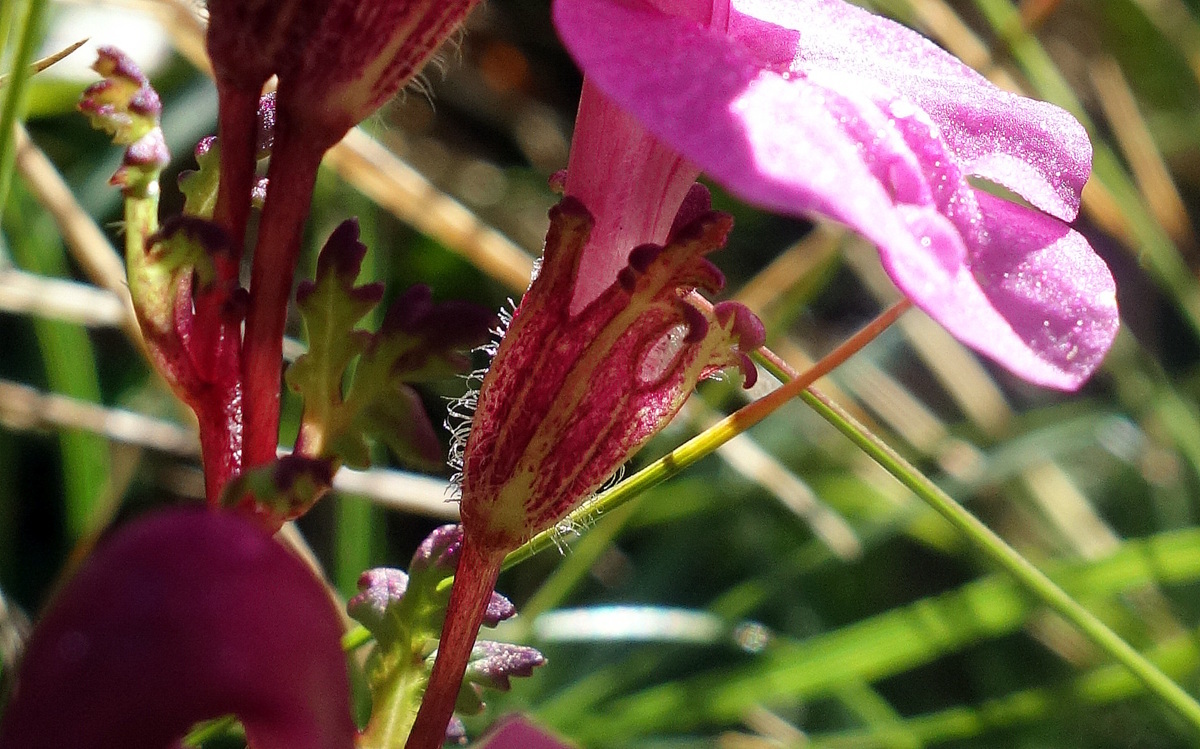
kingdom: Plantae
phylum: Tracheophyta
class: Magnoliopsida
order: Lamiales
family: Orobanchaceae
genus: Pedicularis
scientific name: Pedicularis kerneri
